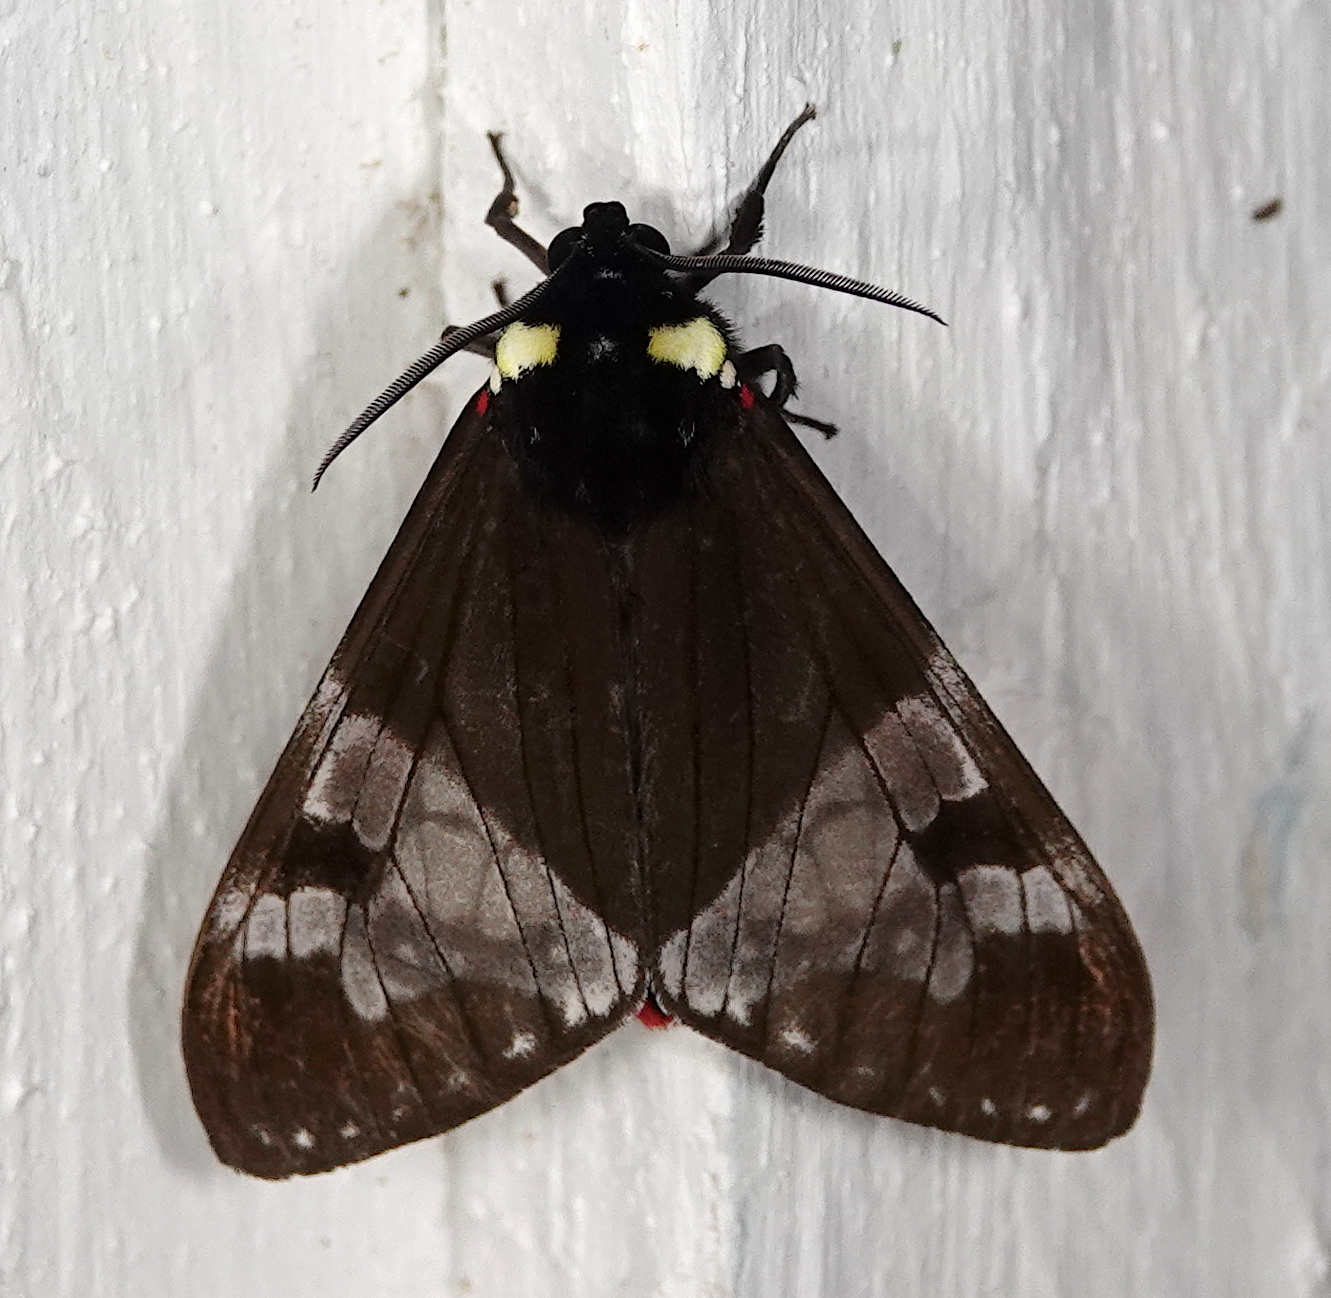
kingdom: Animalia
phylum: Arthropoda
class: Insecta
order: Lepidoptera
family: Erebidae
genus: Dysschema
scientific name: Dysschema marginalis
